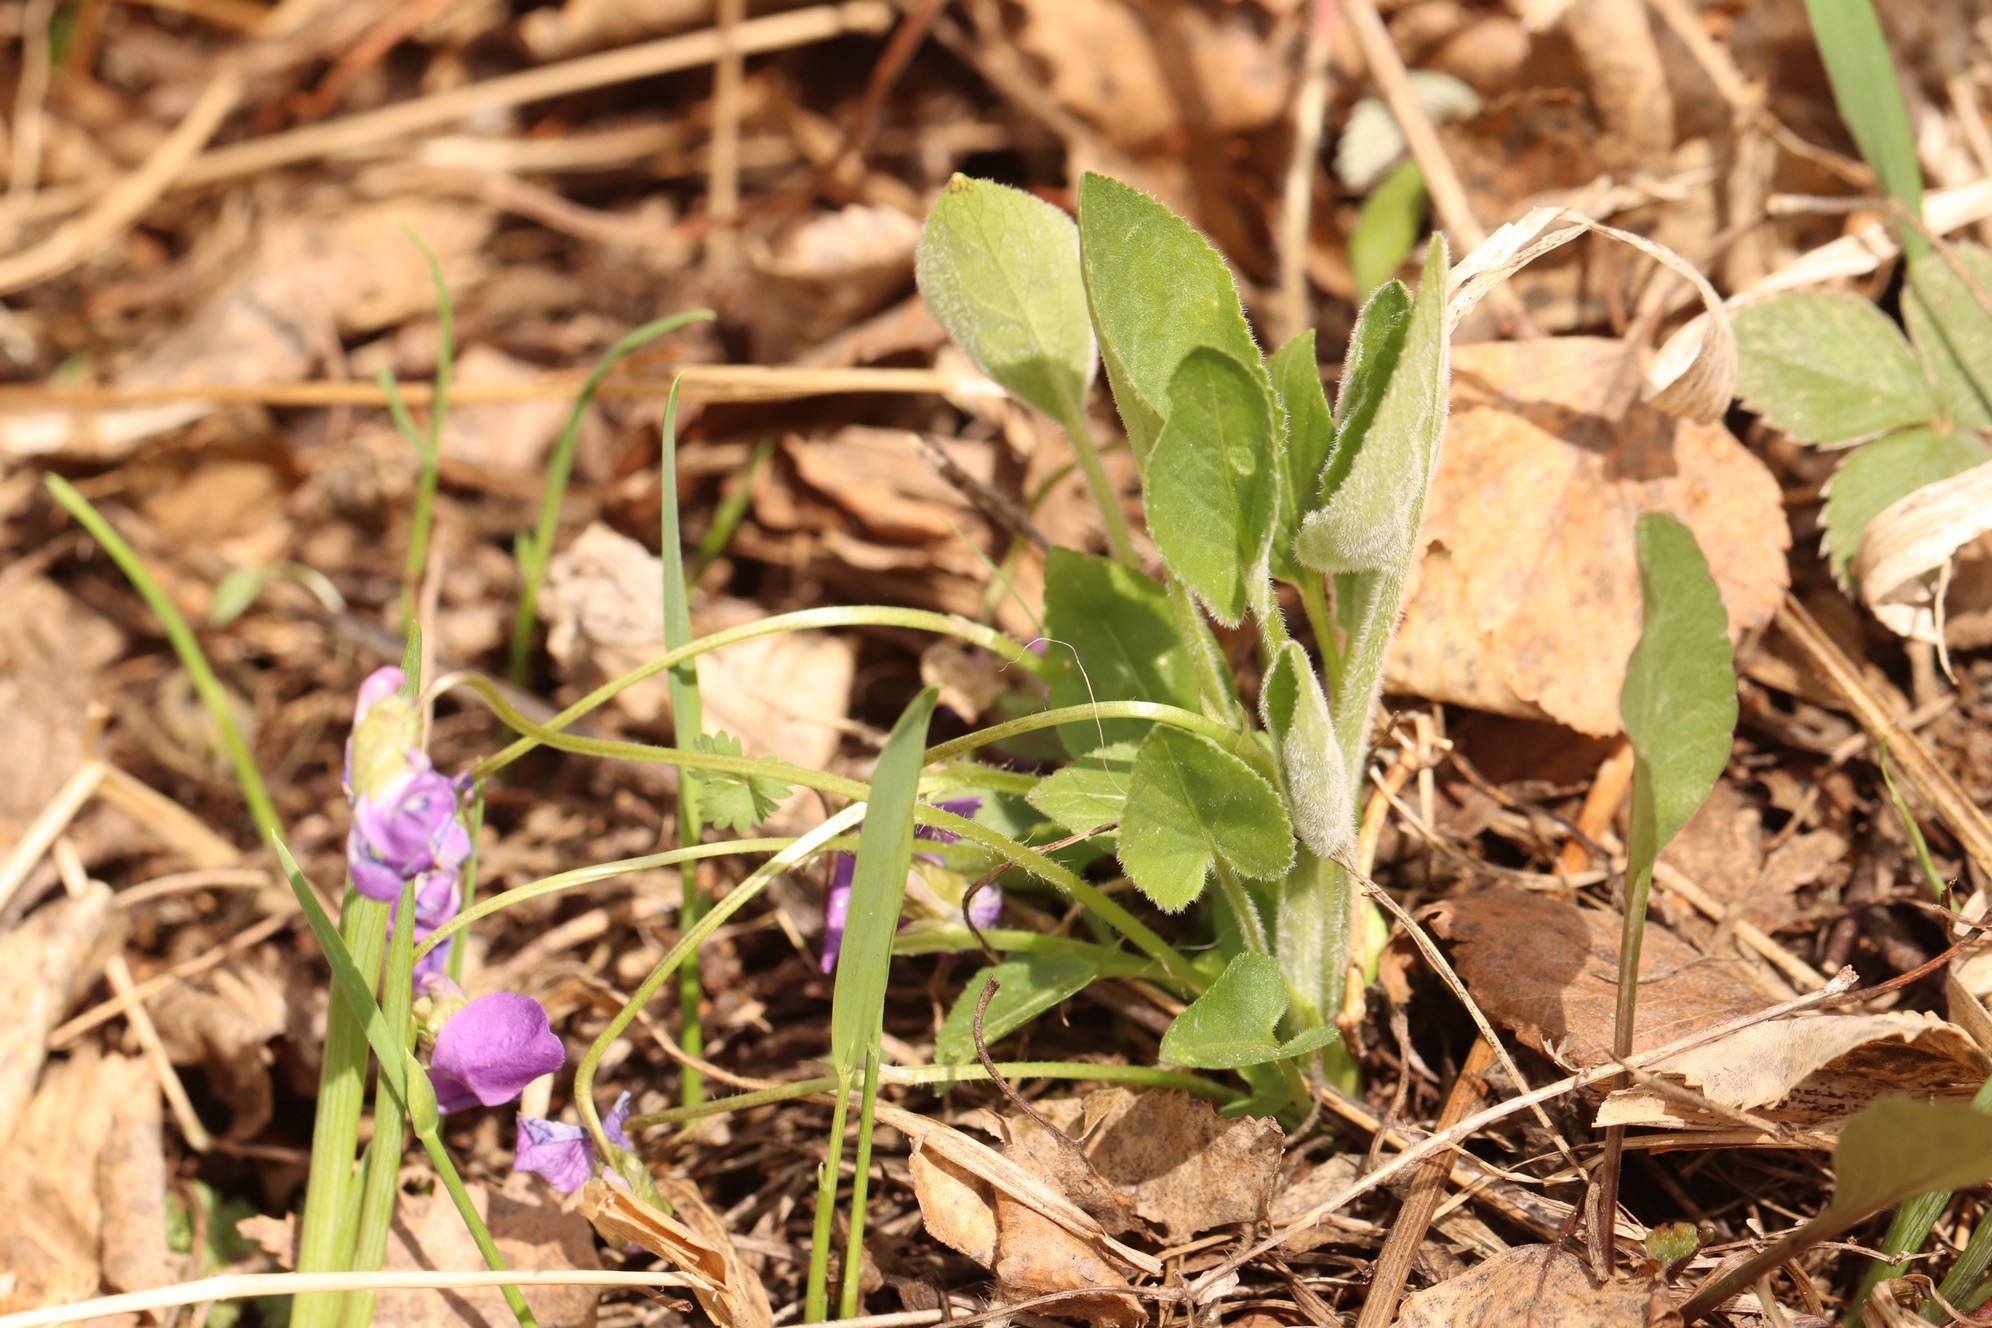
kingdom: Plantae
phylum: Tracheophyta
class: Magnoliopsida
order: Malpighiales
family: Violaceae
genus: Viola
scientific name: Viola hirta
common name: Hairy violet
